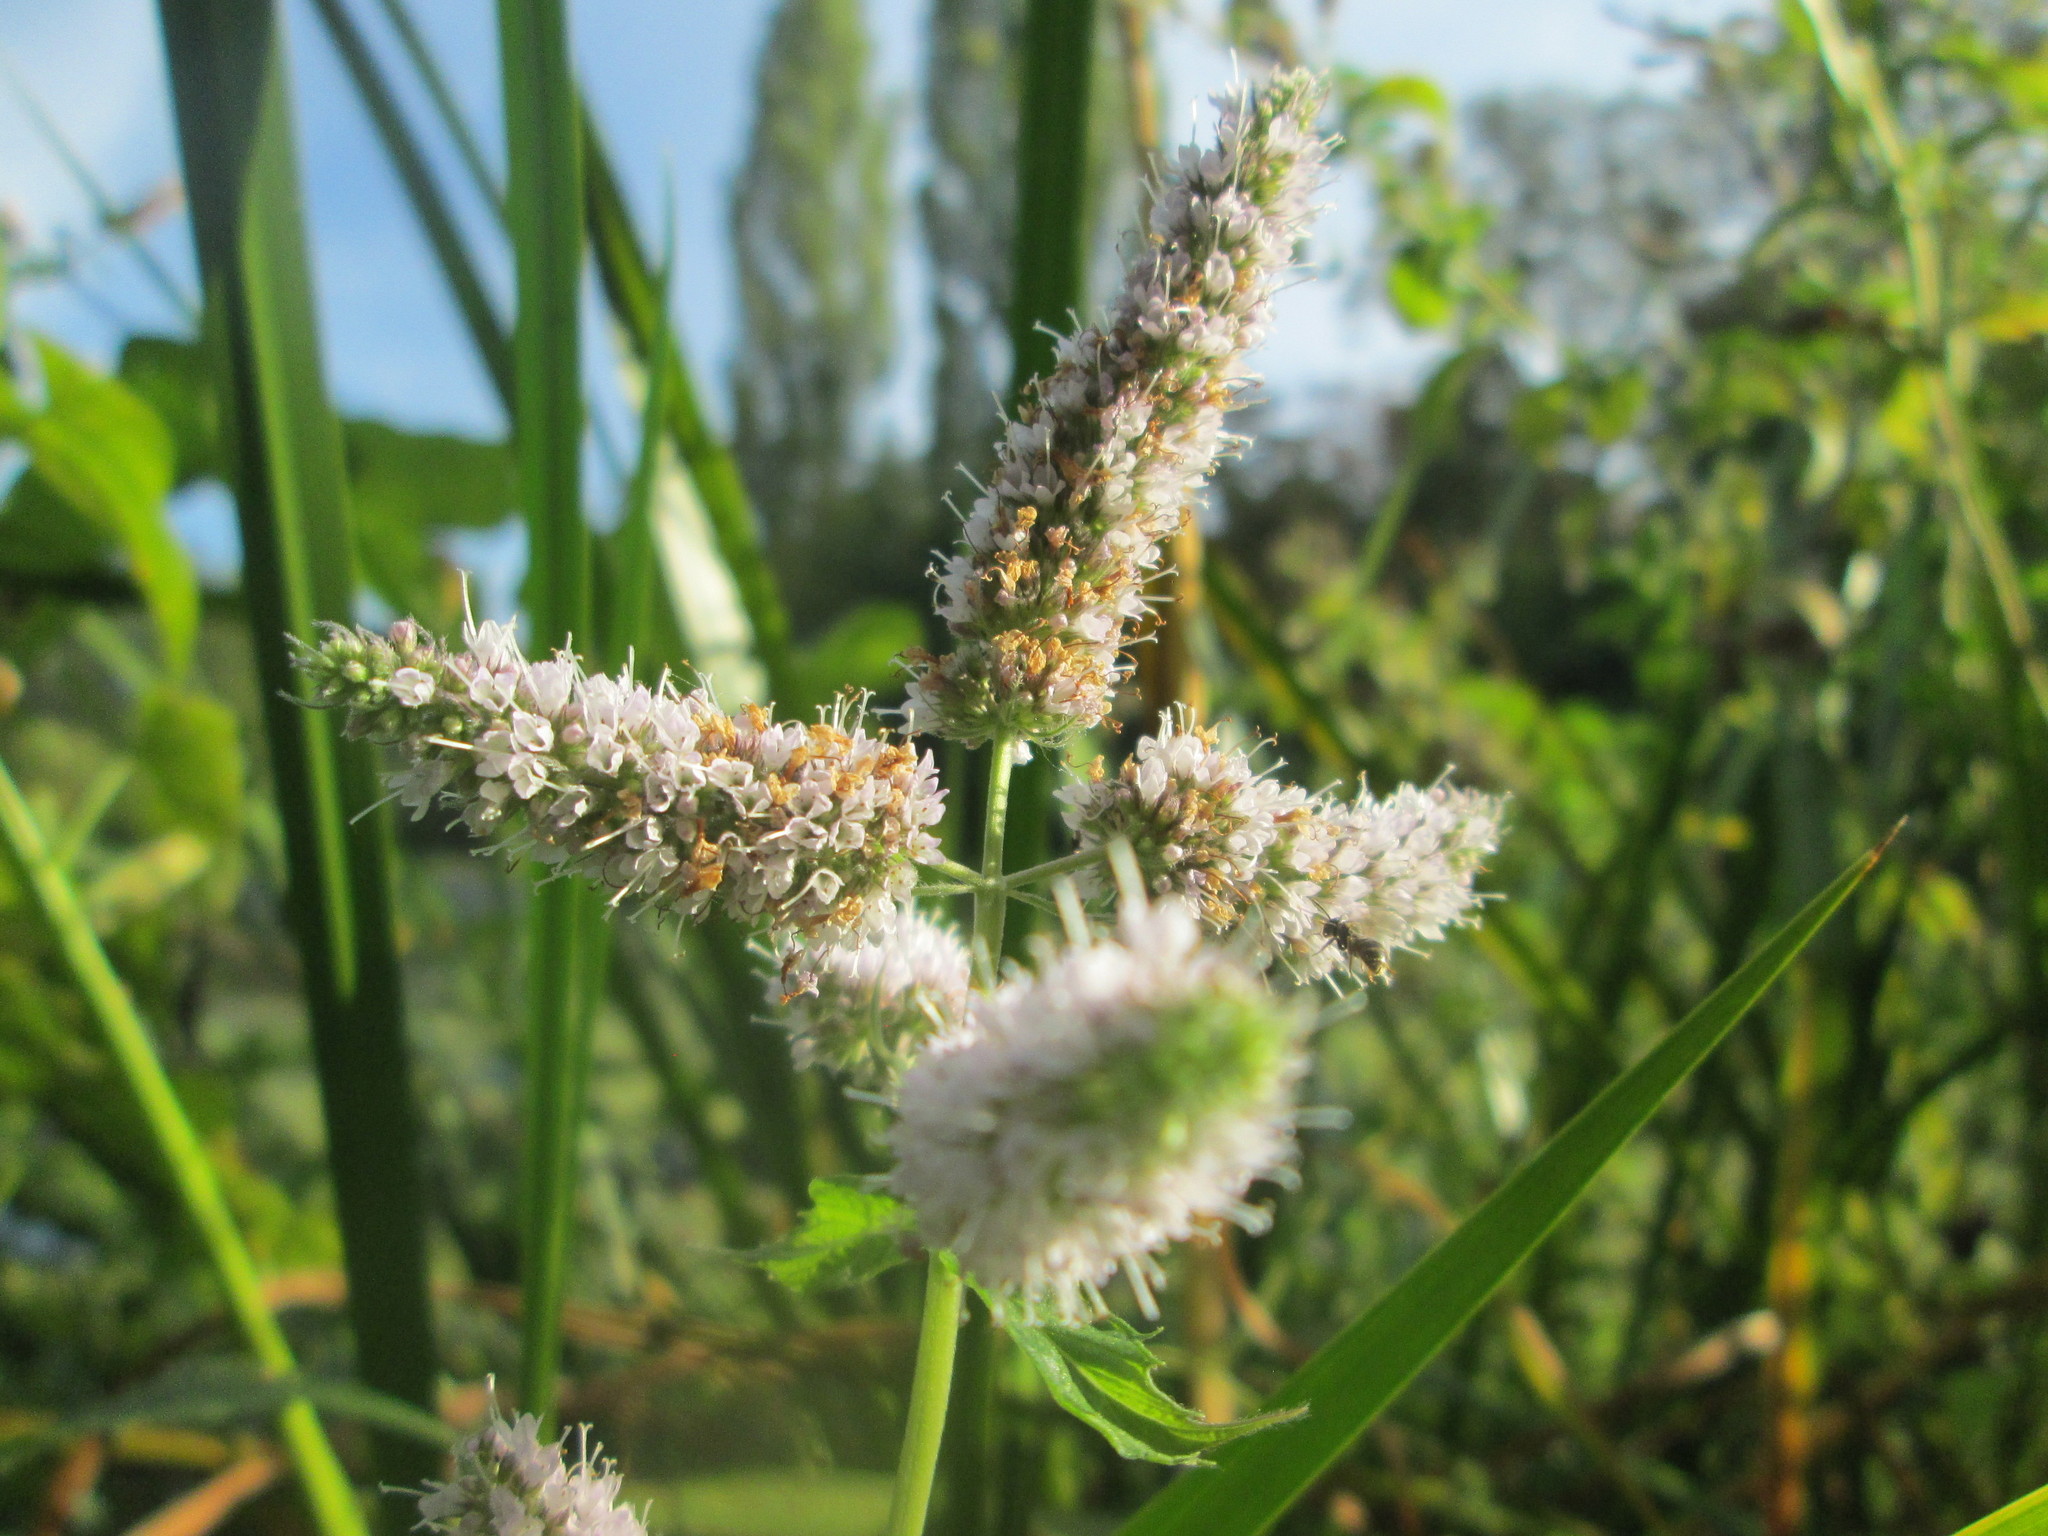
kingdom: Plantae
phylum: Tracheophyta
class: Magnoliopsida
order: Lamiales
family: Lamiaceae
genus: Mentha
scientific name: Mentha longifolia
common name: Horse mint
